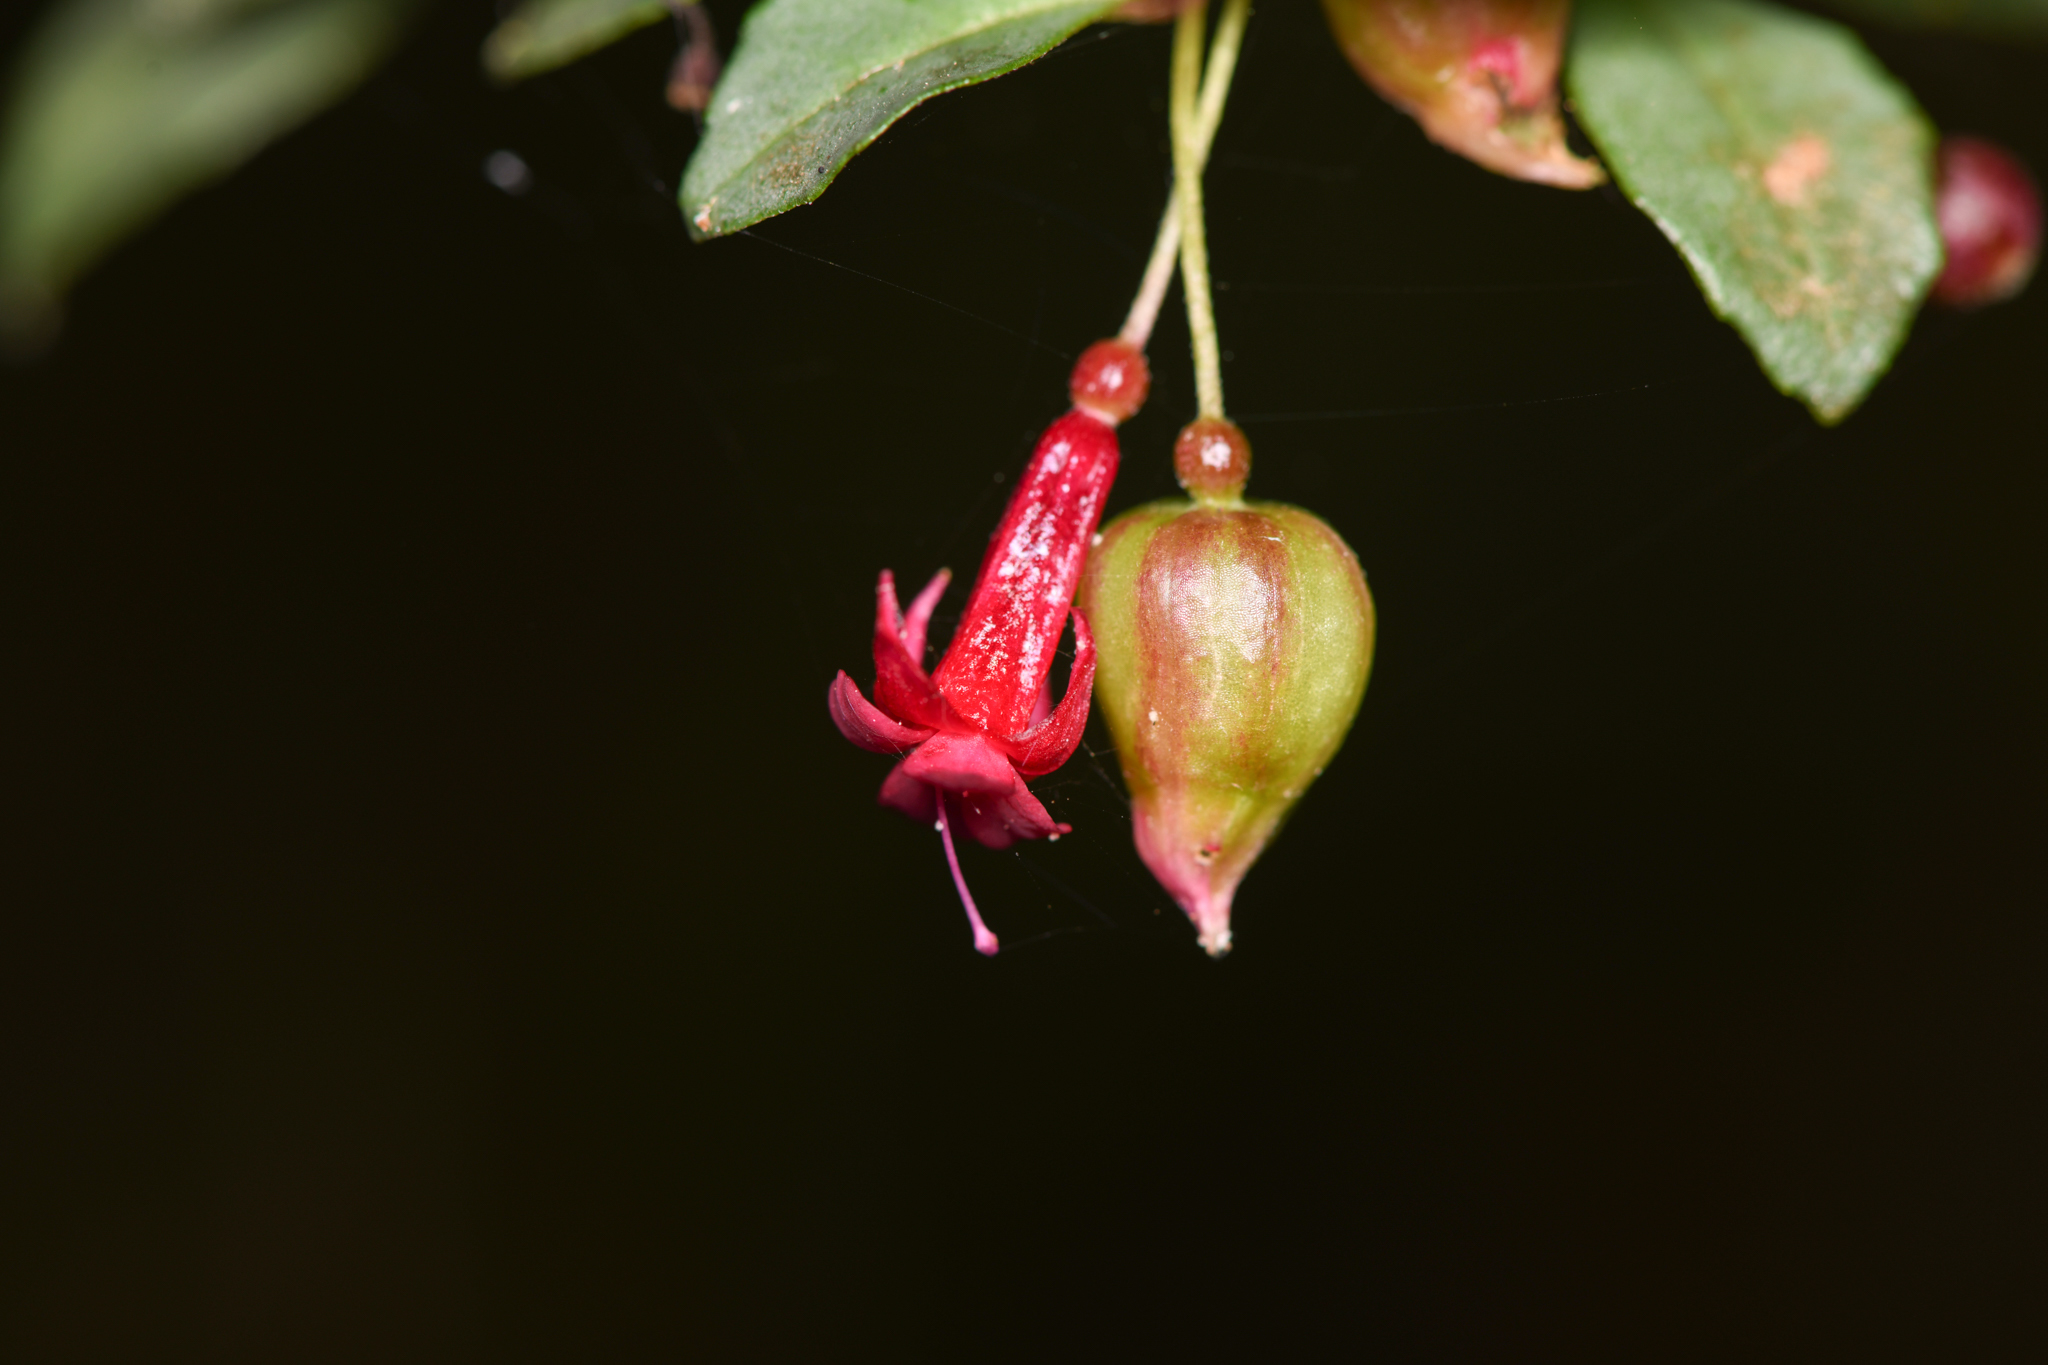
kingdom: Plantae
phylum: Tracheophyta
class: Magnoliopsida
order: Myrtales
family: Onagraceae
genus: Fuchsia
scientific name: Fuchsia microphylla
